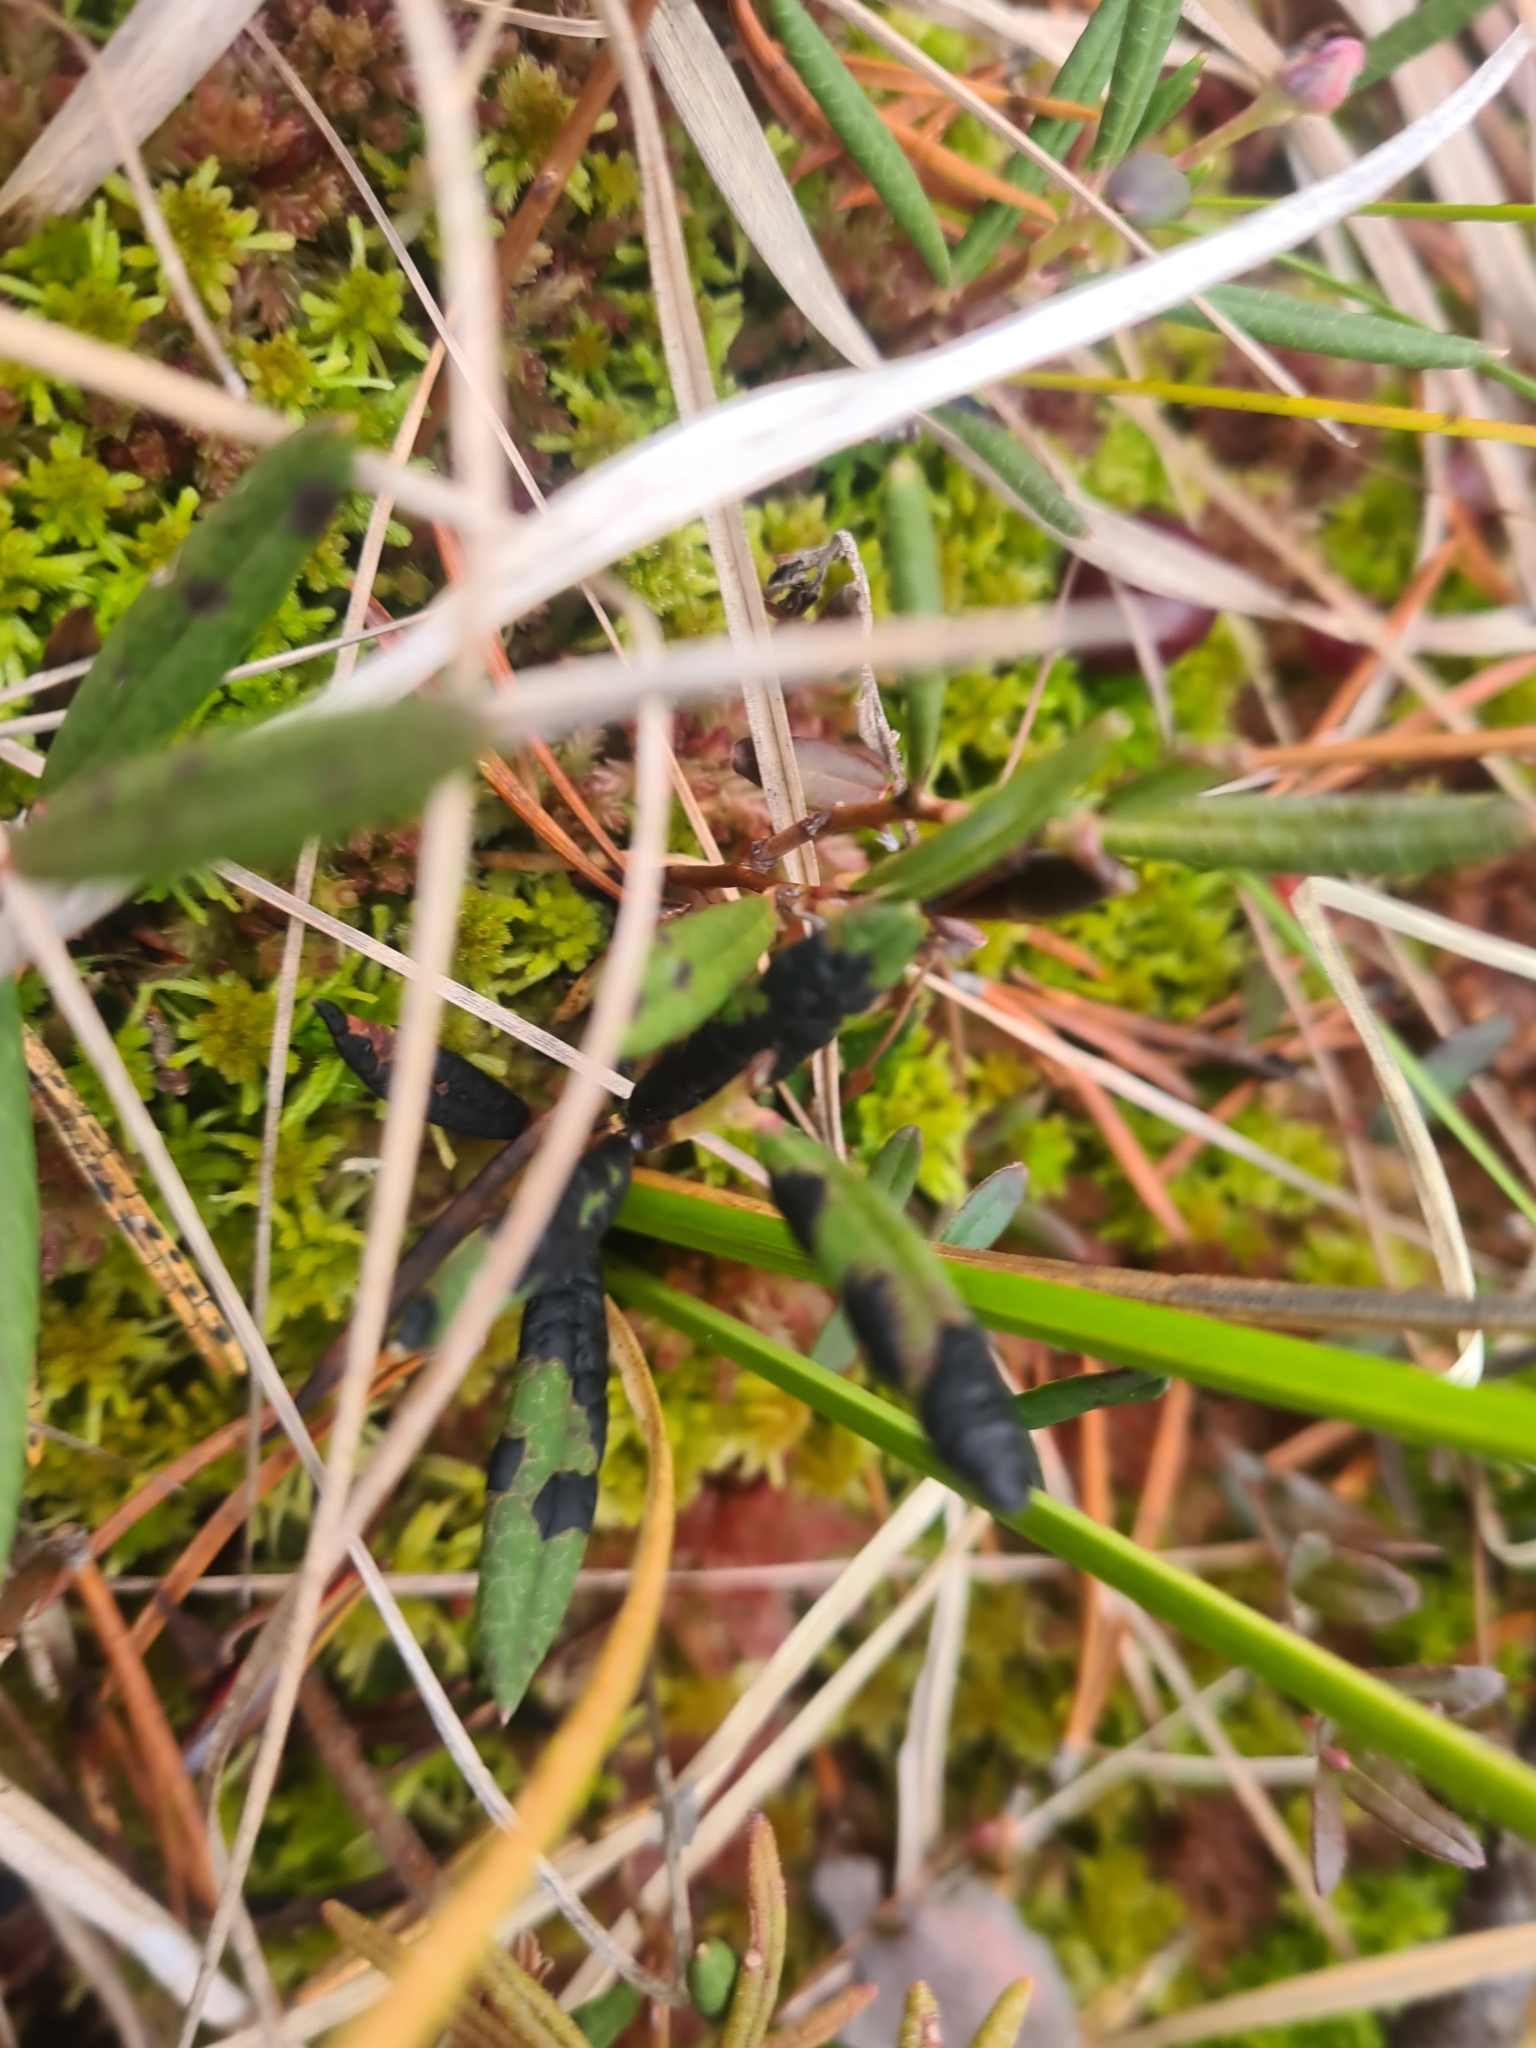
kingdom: Fungi
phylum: Ascomycota
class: Leotiomycetes
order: Rhytismatales
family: Rhytismataceae
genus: Rhytisma
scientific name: Rhytisma andromedae
